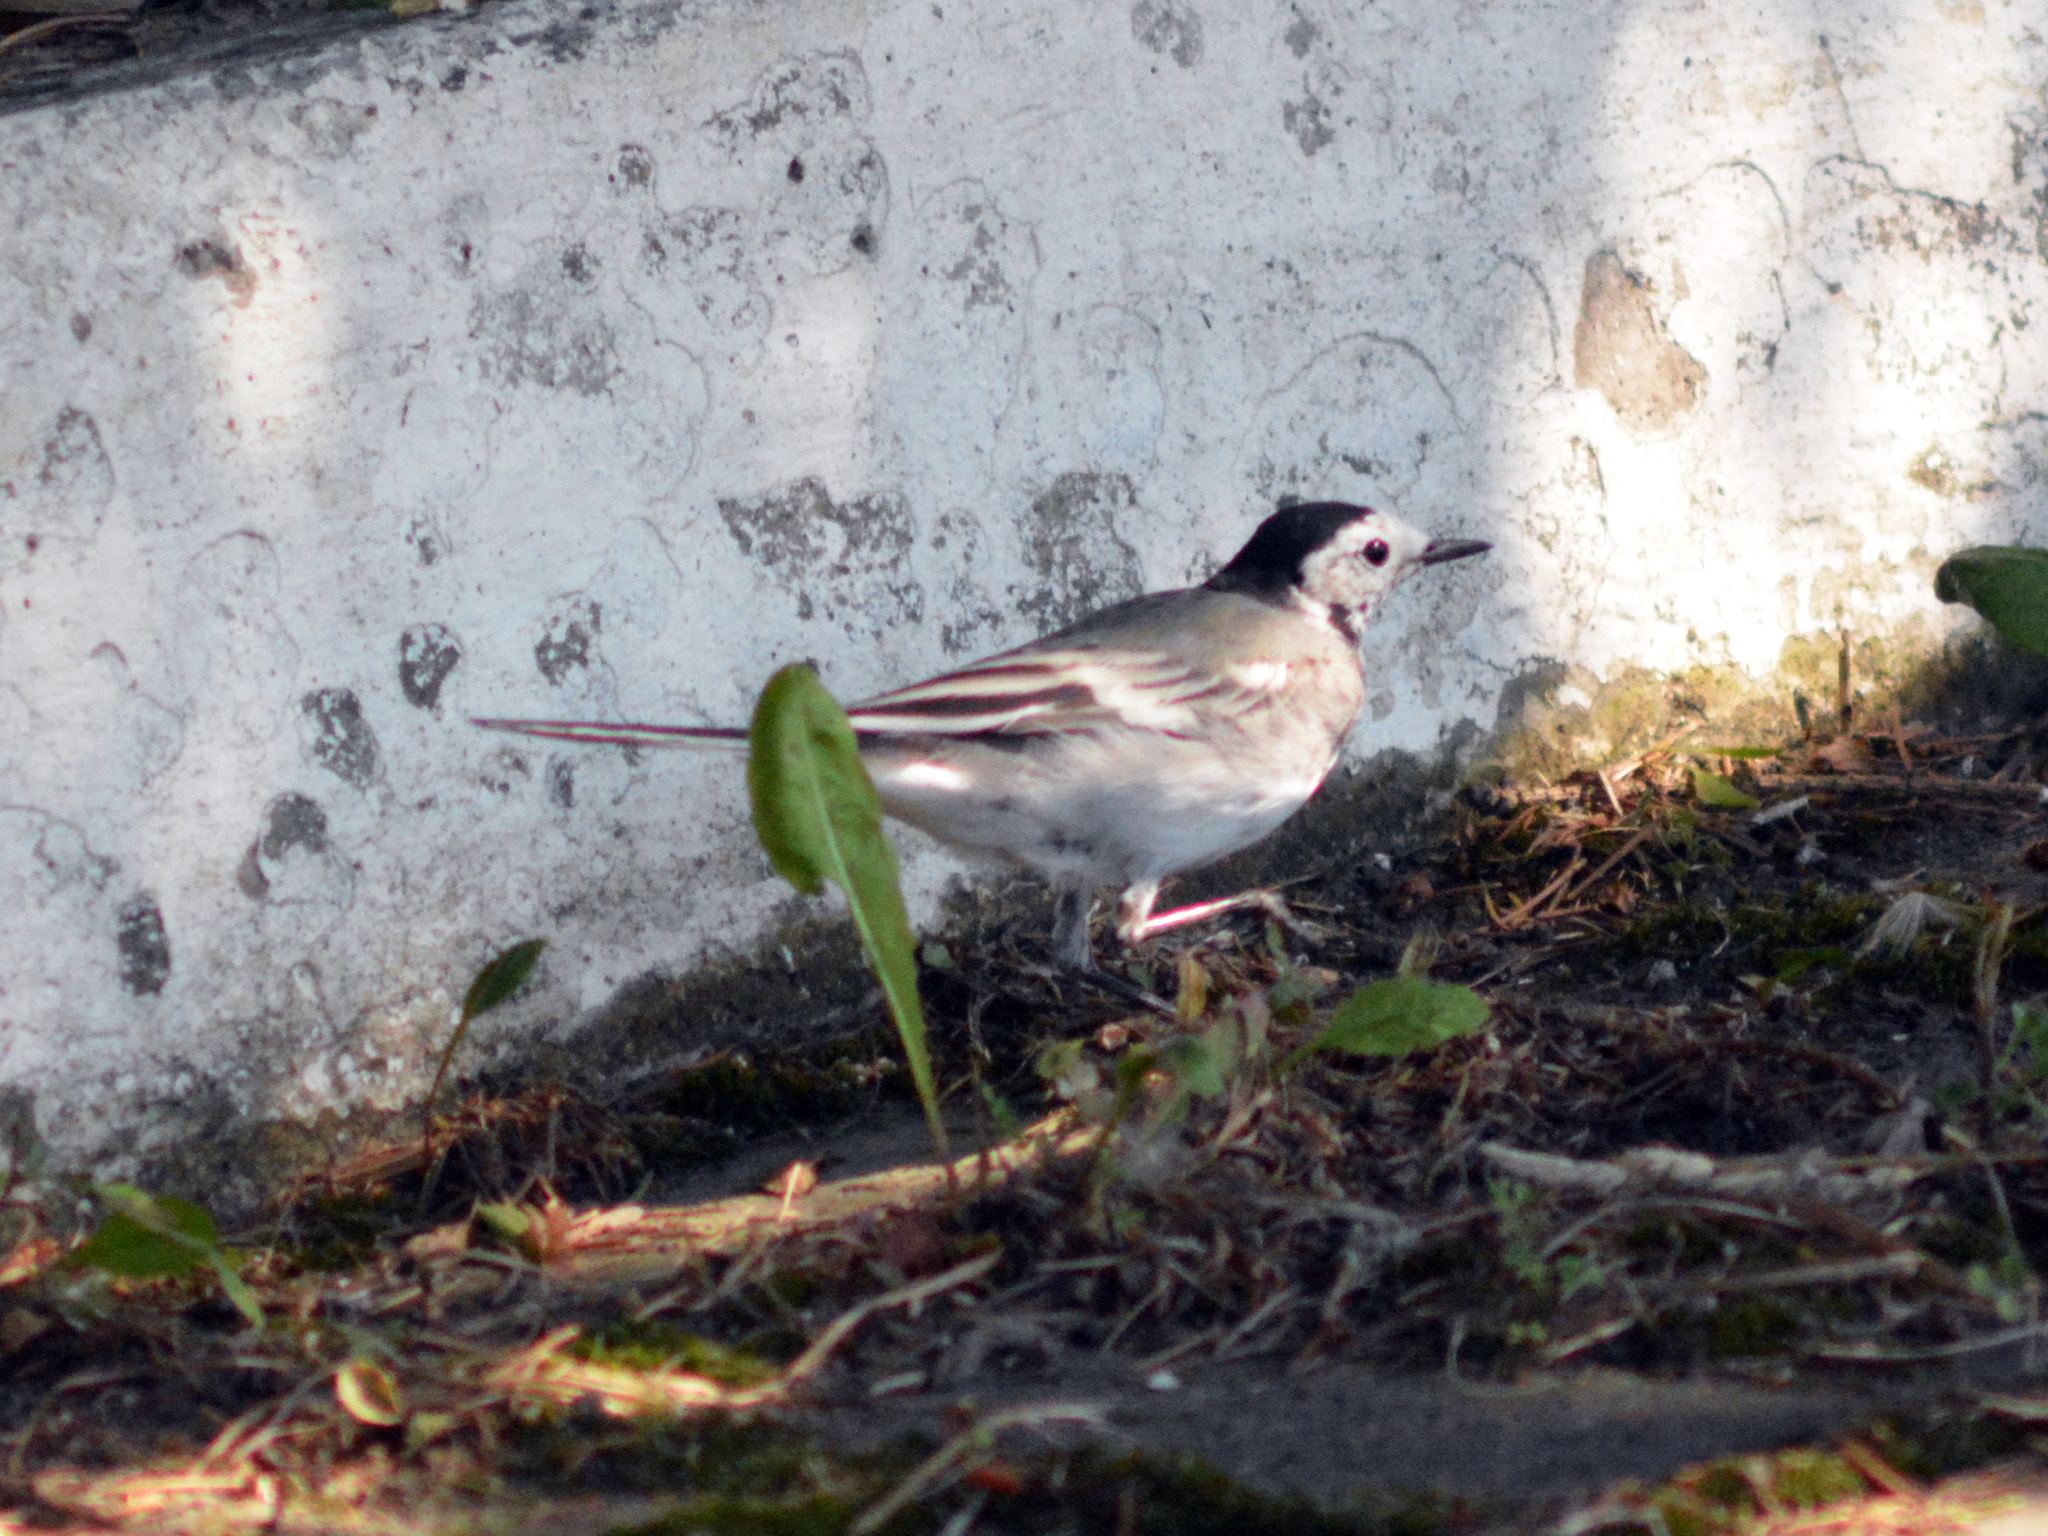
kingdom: Animalia
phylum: Chordata
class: Aves
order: Passeriformes
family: Motacillidae
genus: Motacilla
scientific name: Motacilla alba
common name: White wagtail
